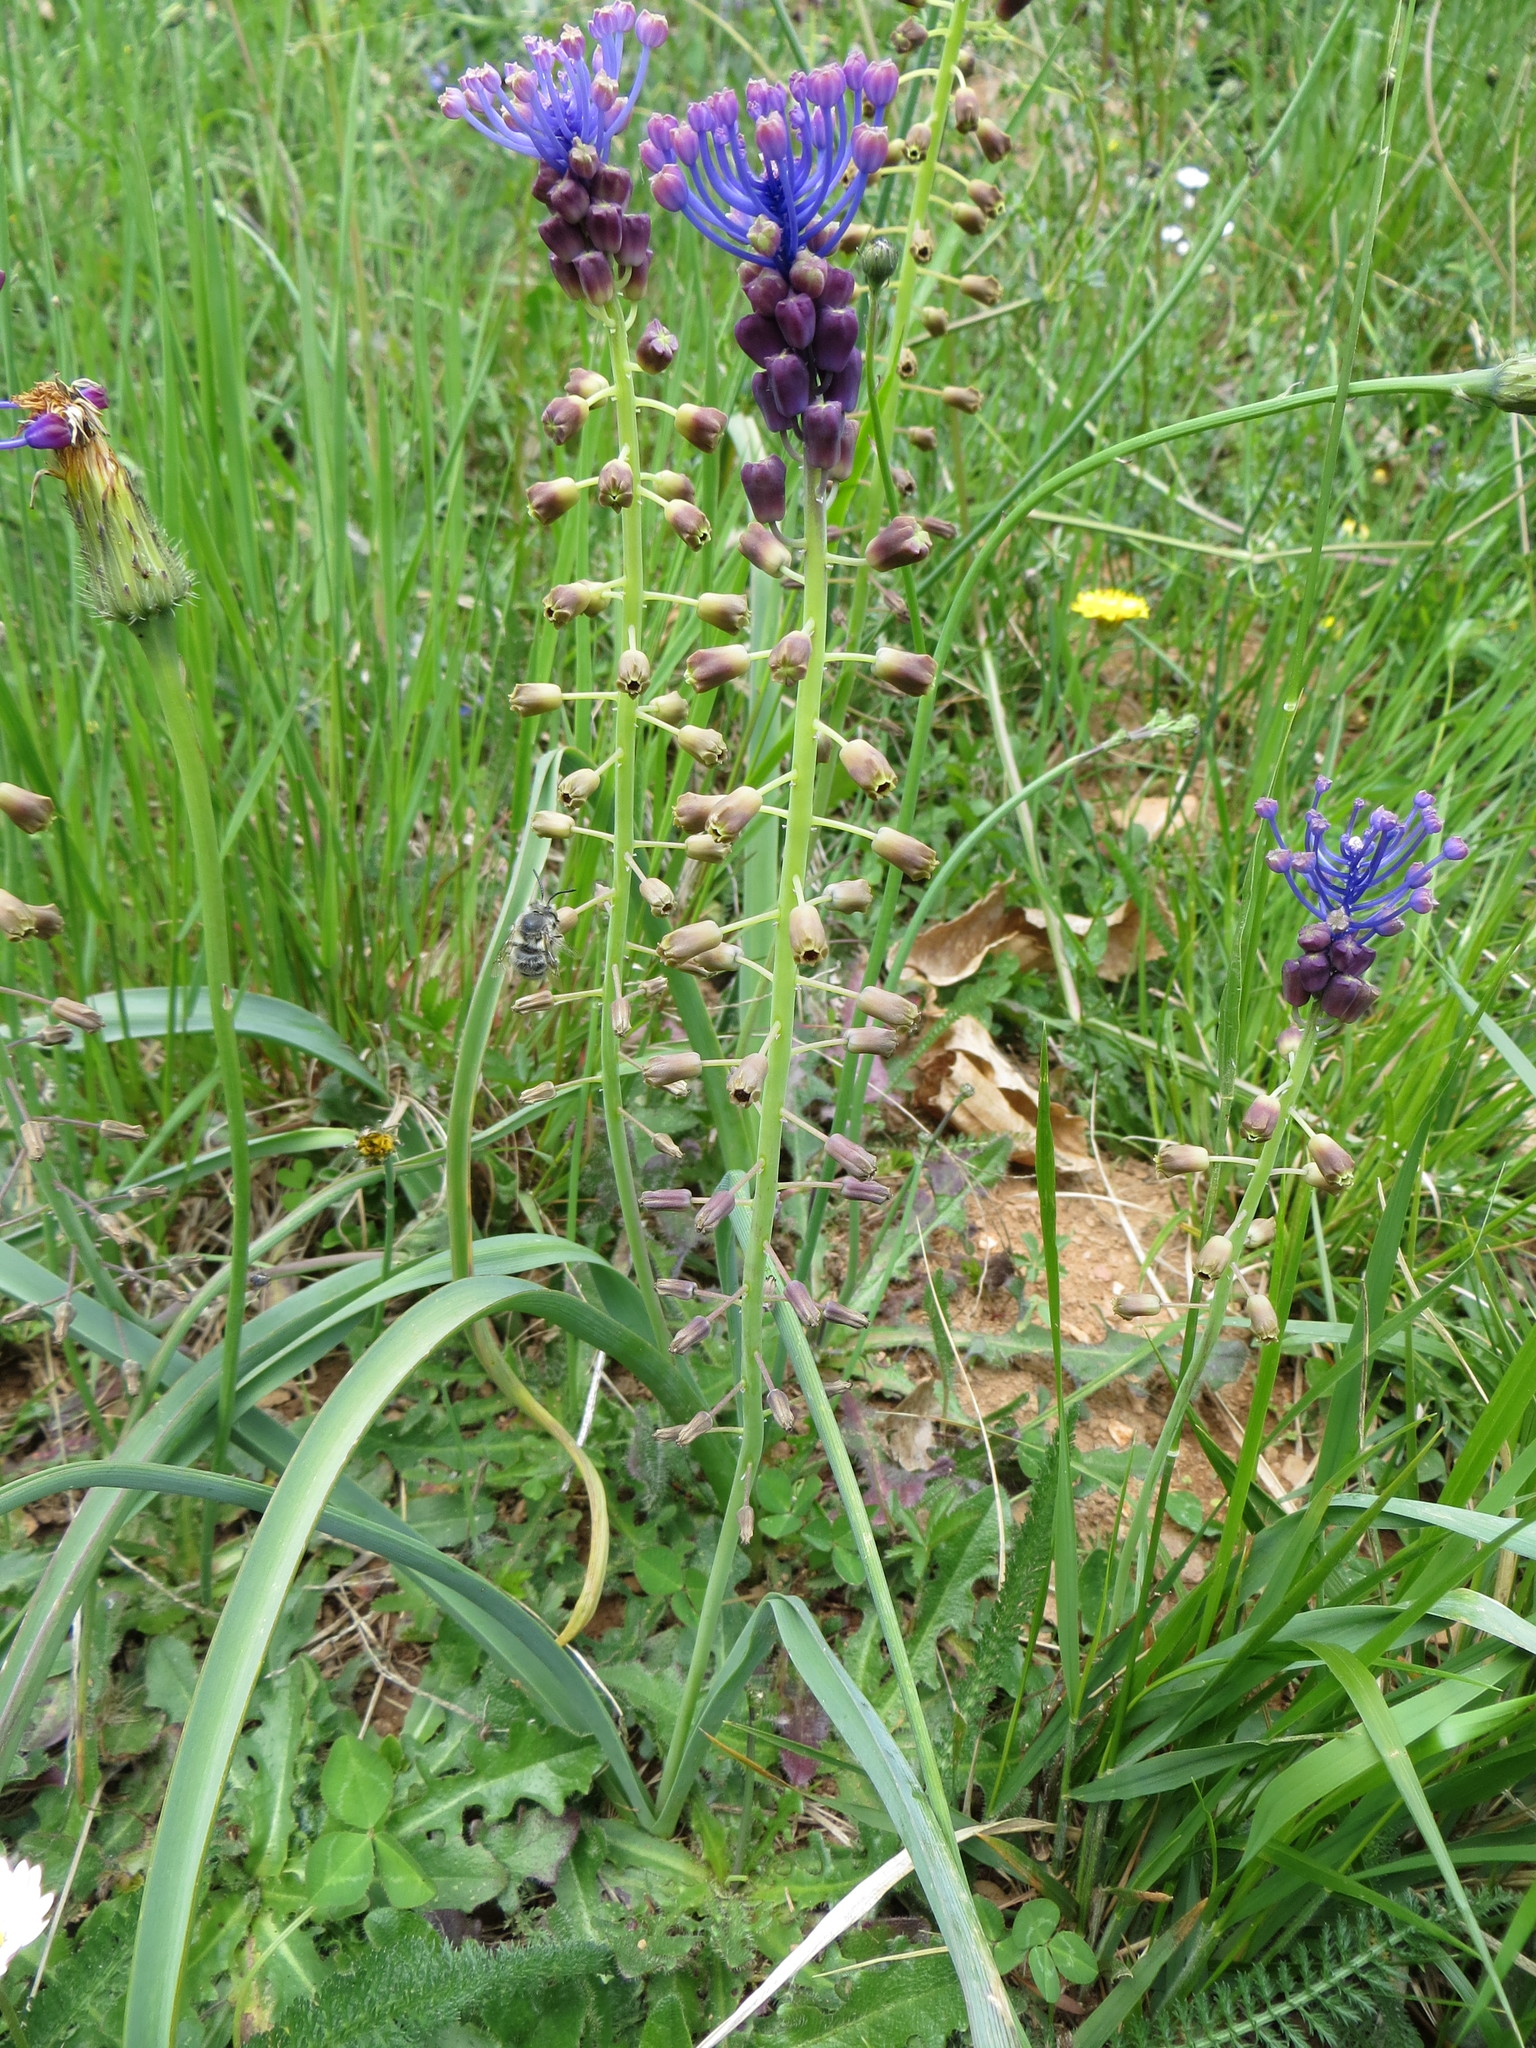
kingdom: Plantae
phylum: Tracheophyta
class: Liliopsida
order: Asparagales
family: Asparagaceae
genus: Muscari
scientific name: Muscari comosum
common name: Tassel hyacinth
